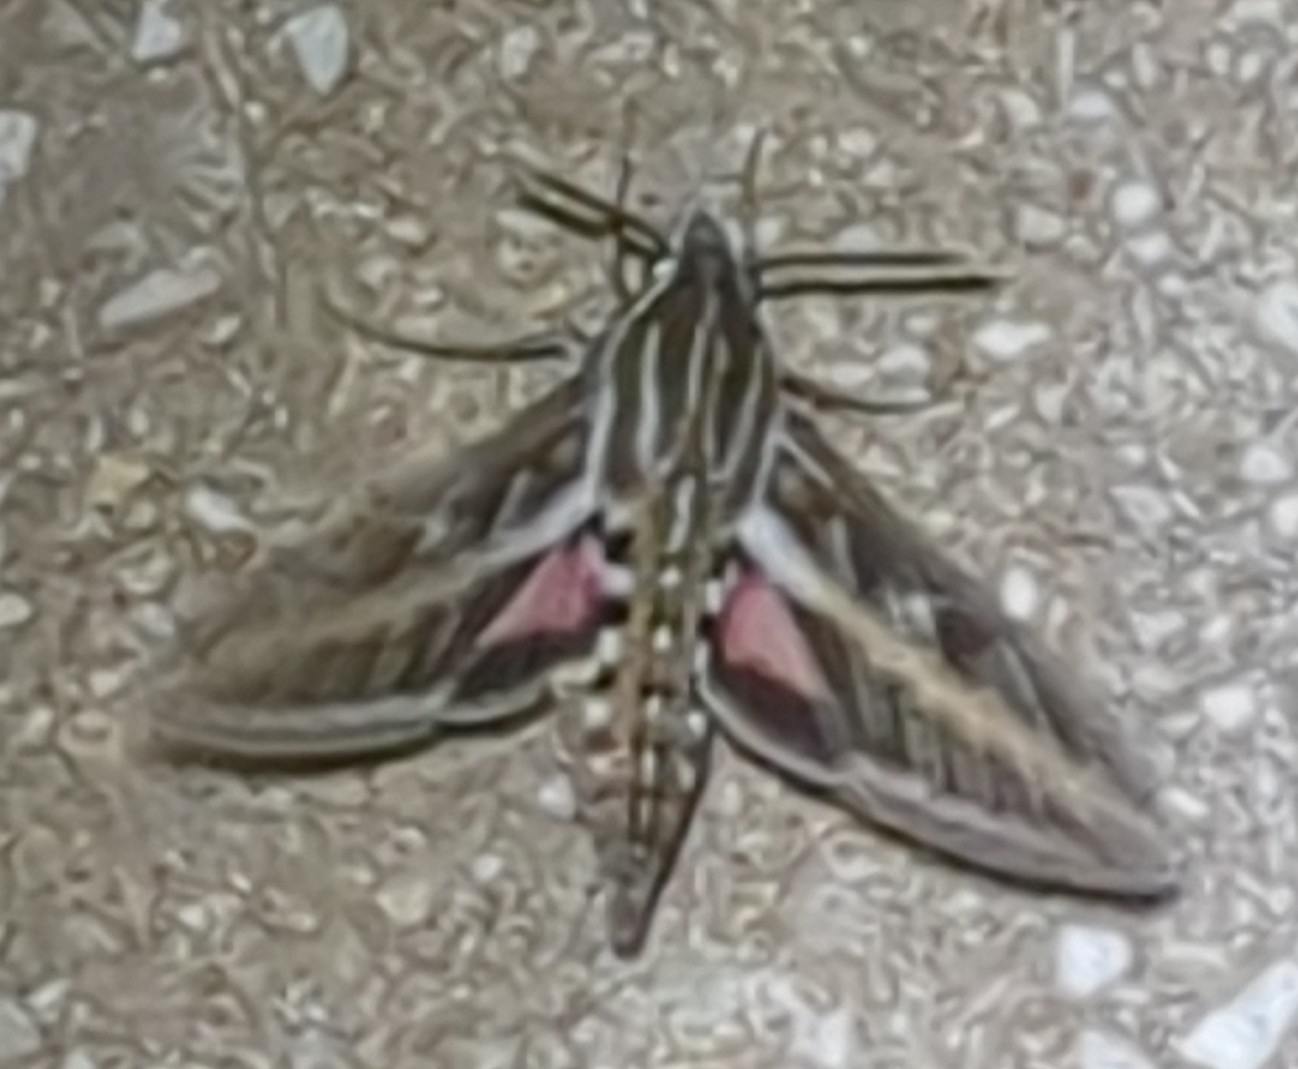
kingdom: Animalia
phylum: Arthropoda
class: Insecta
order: Lepidoptera
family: Sphingidae
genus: Hyles
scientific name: Hyles lineata
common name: White-lined sphinx
